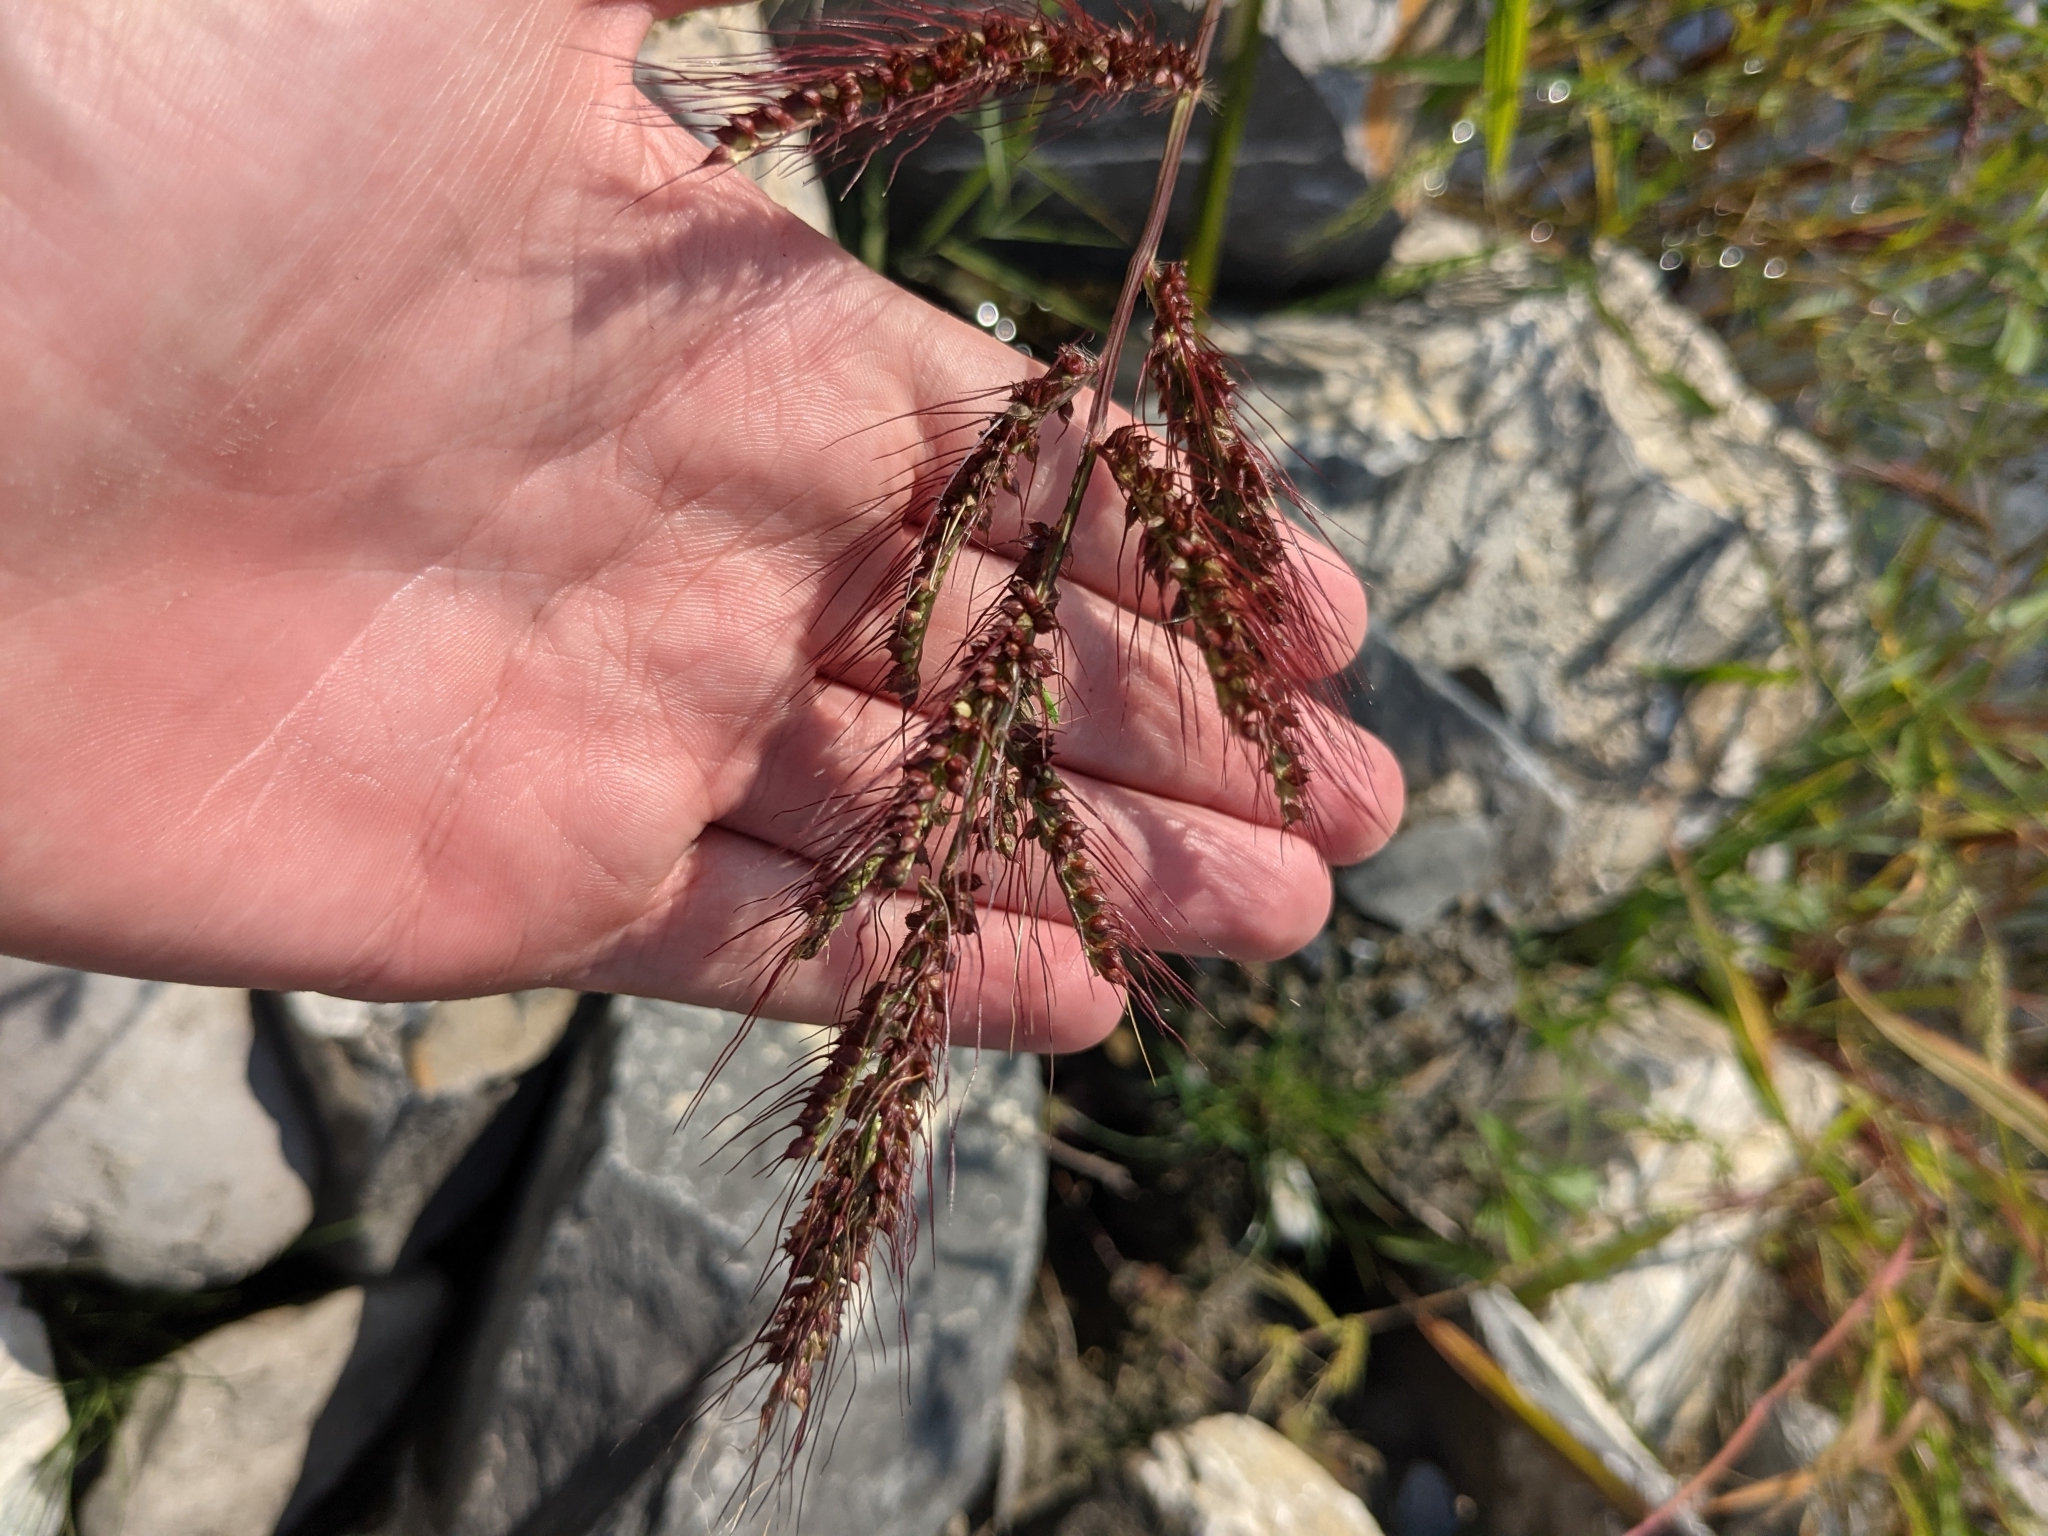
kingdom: Plantae
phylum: Tracheophyta
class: Liliopsida
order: Poales
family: Poaceae
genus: Echinochloa
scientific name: Echinochloa crus-galli
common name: Cockspur
